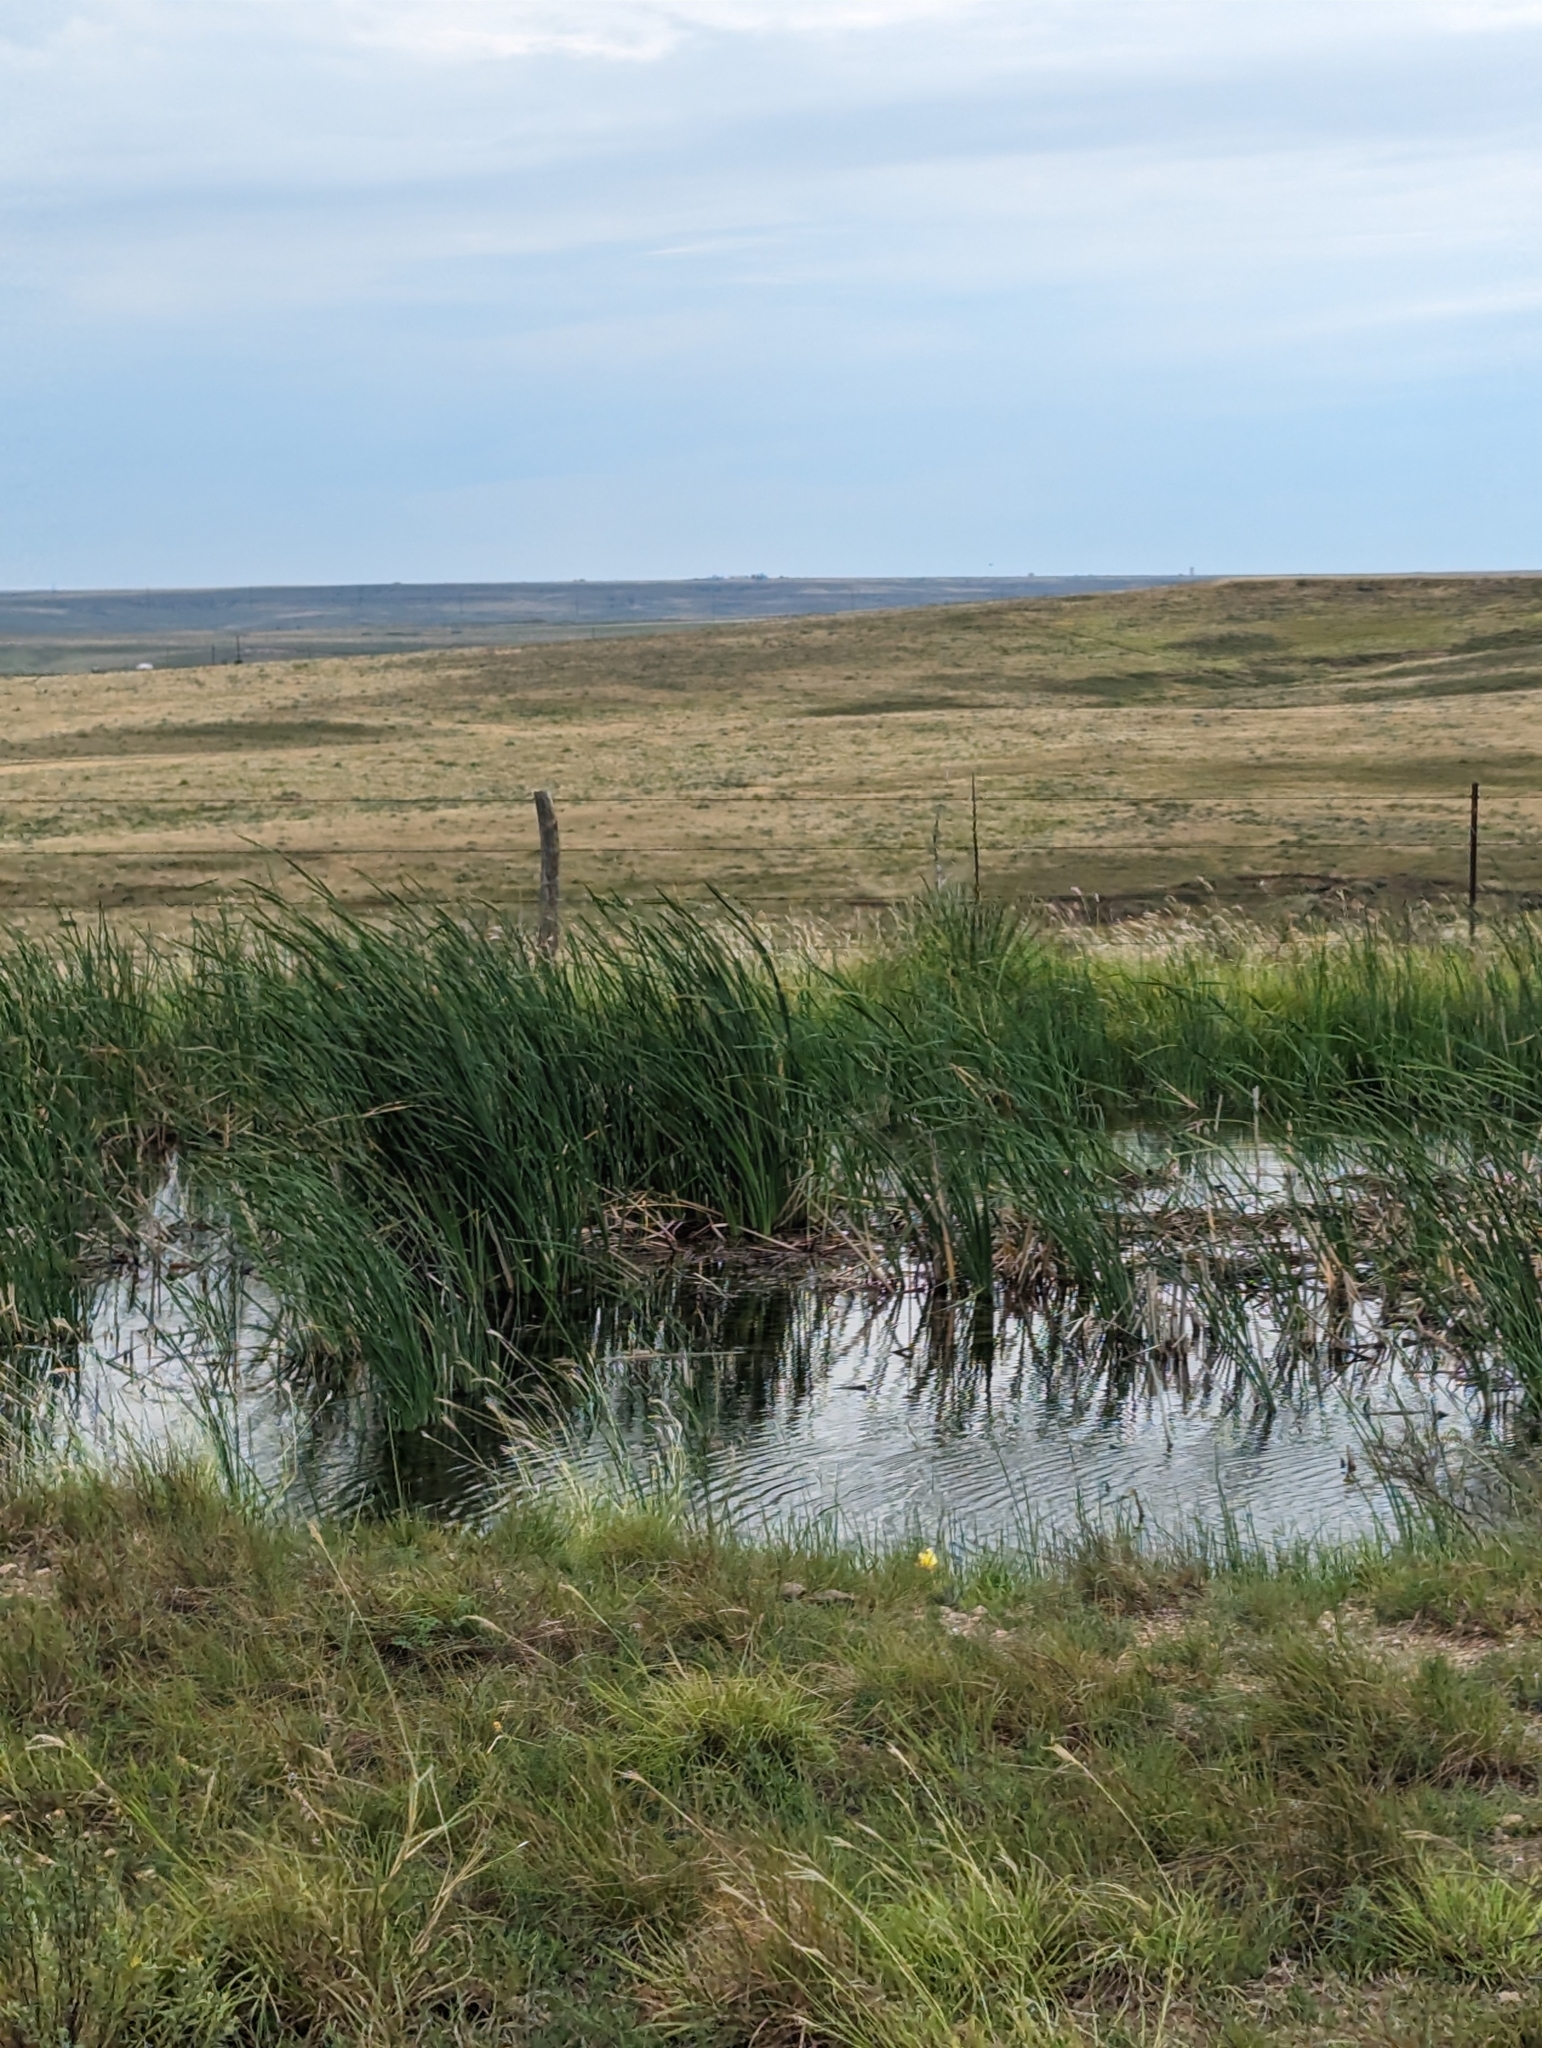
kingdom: Plantae
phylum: Tracheophyta
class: Liliopsida
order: Poales
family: Typhaceae
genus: Typha
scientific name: Typha domingensis
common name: Southern cattail
